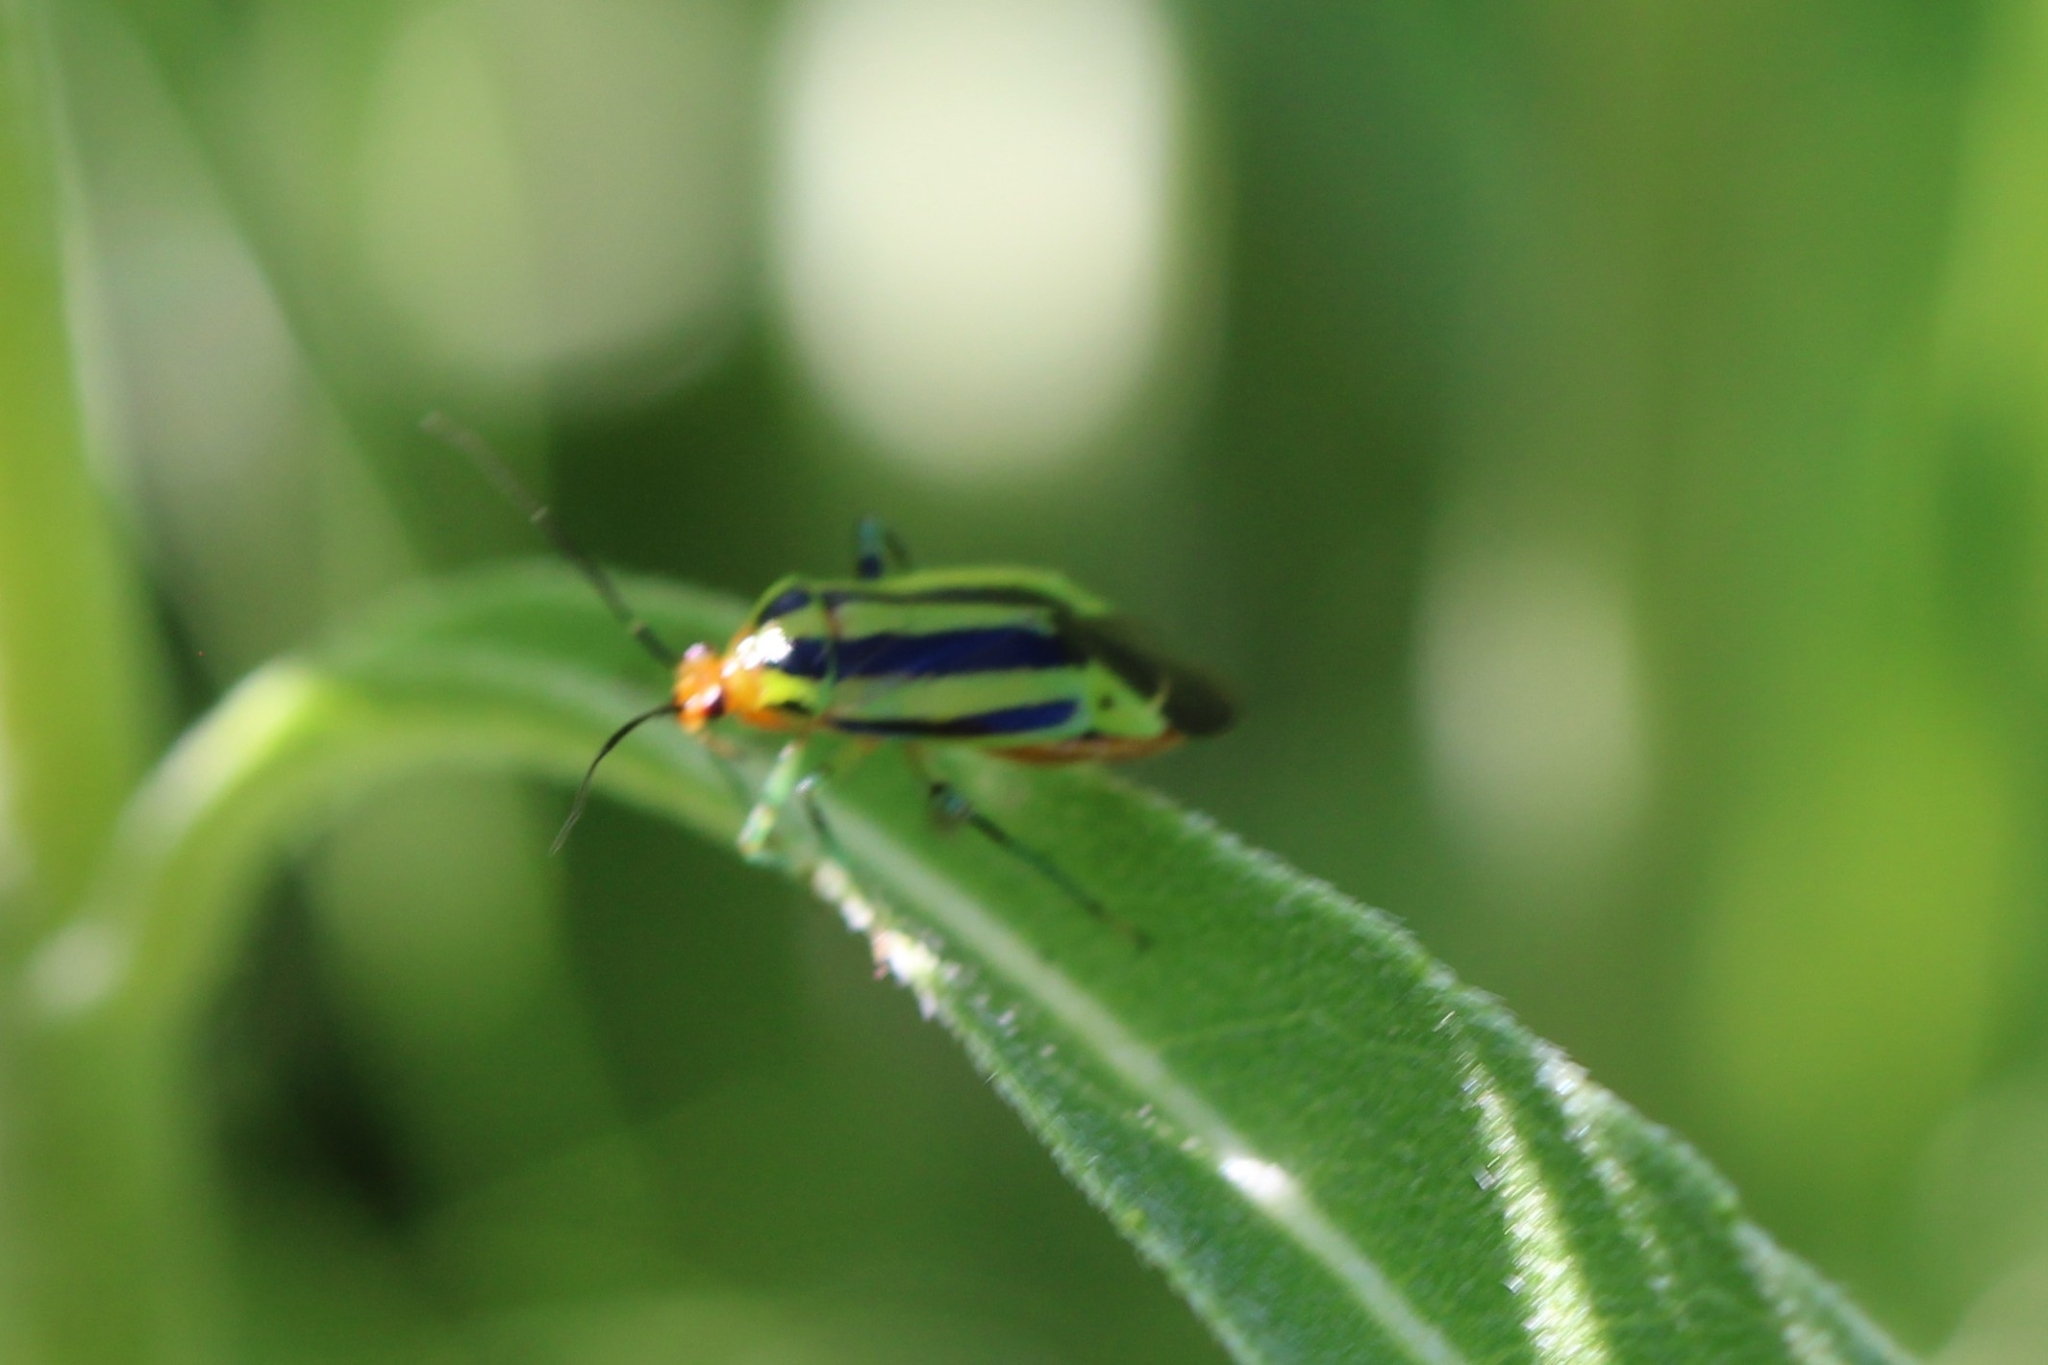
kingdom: Animalia
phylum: Arthropoda
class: Insecta
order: Hemiptera
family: Miridae
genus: Poecilocapsus
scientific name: Poecilocapsus lineatus
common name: Four-lined plant bug
